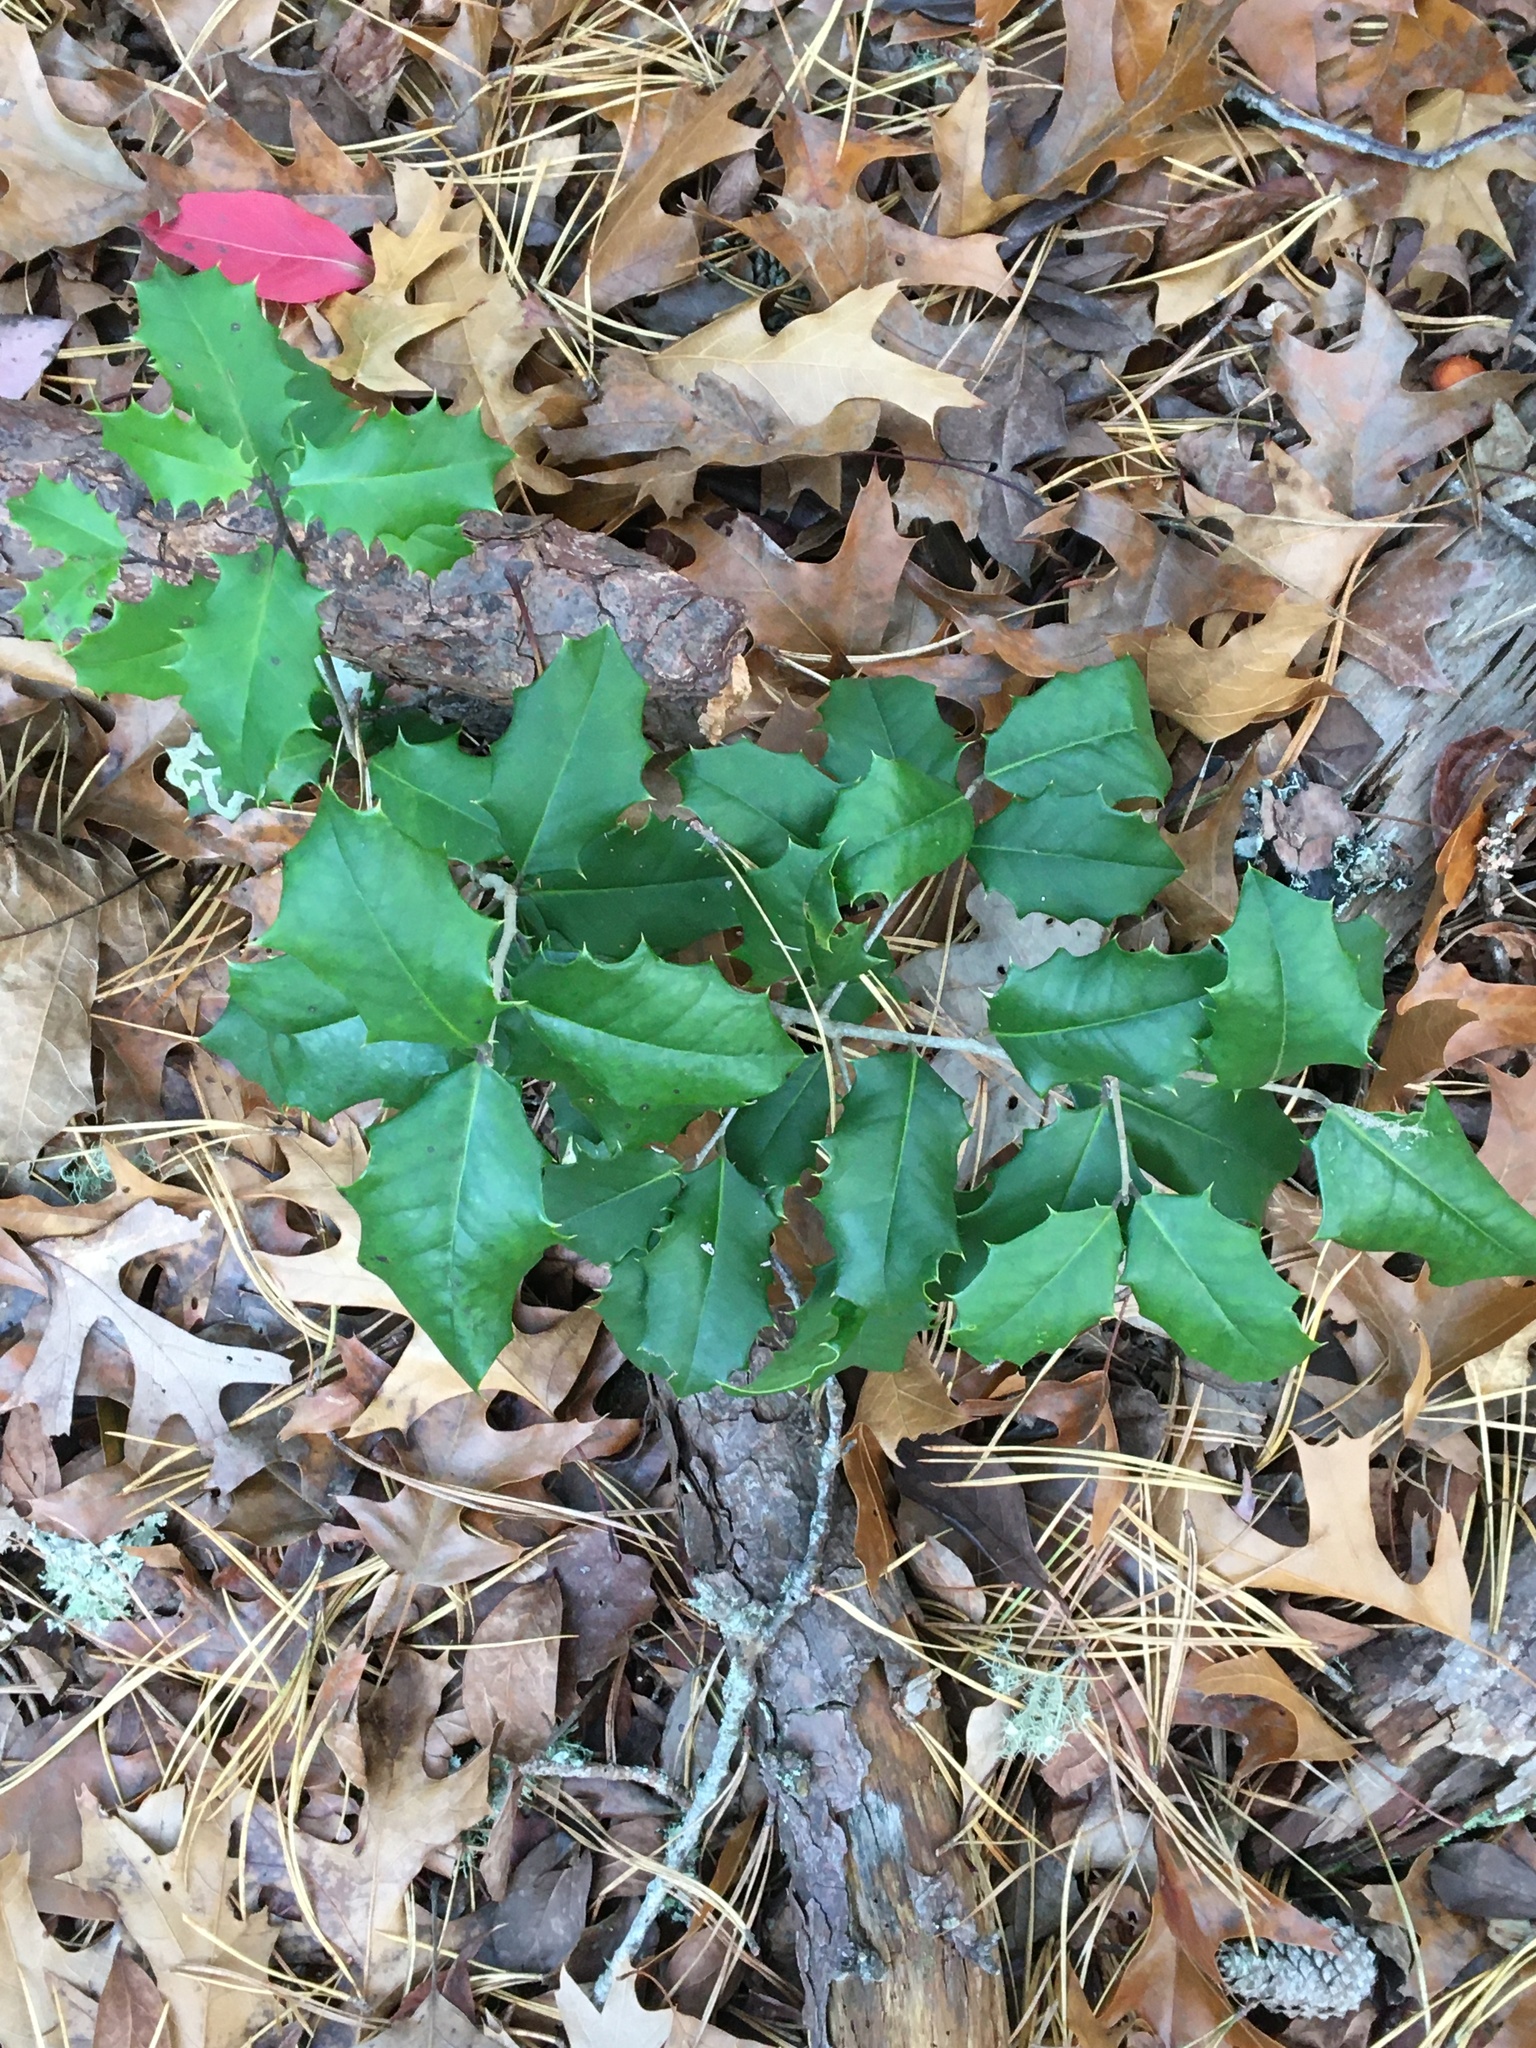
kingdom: Plantae
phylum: Tracheophyta
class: Magnoliopsida
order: Aquifoliales
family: Aquifoliaceae
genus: Ilex
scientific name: Ilex opaca
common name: American holly
